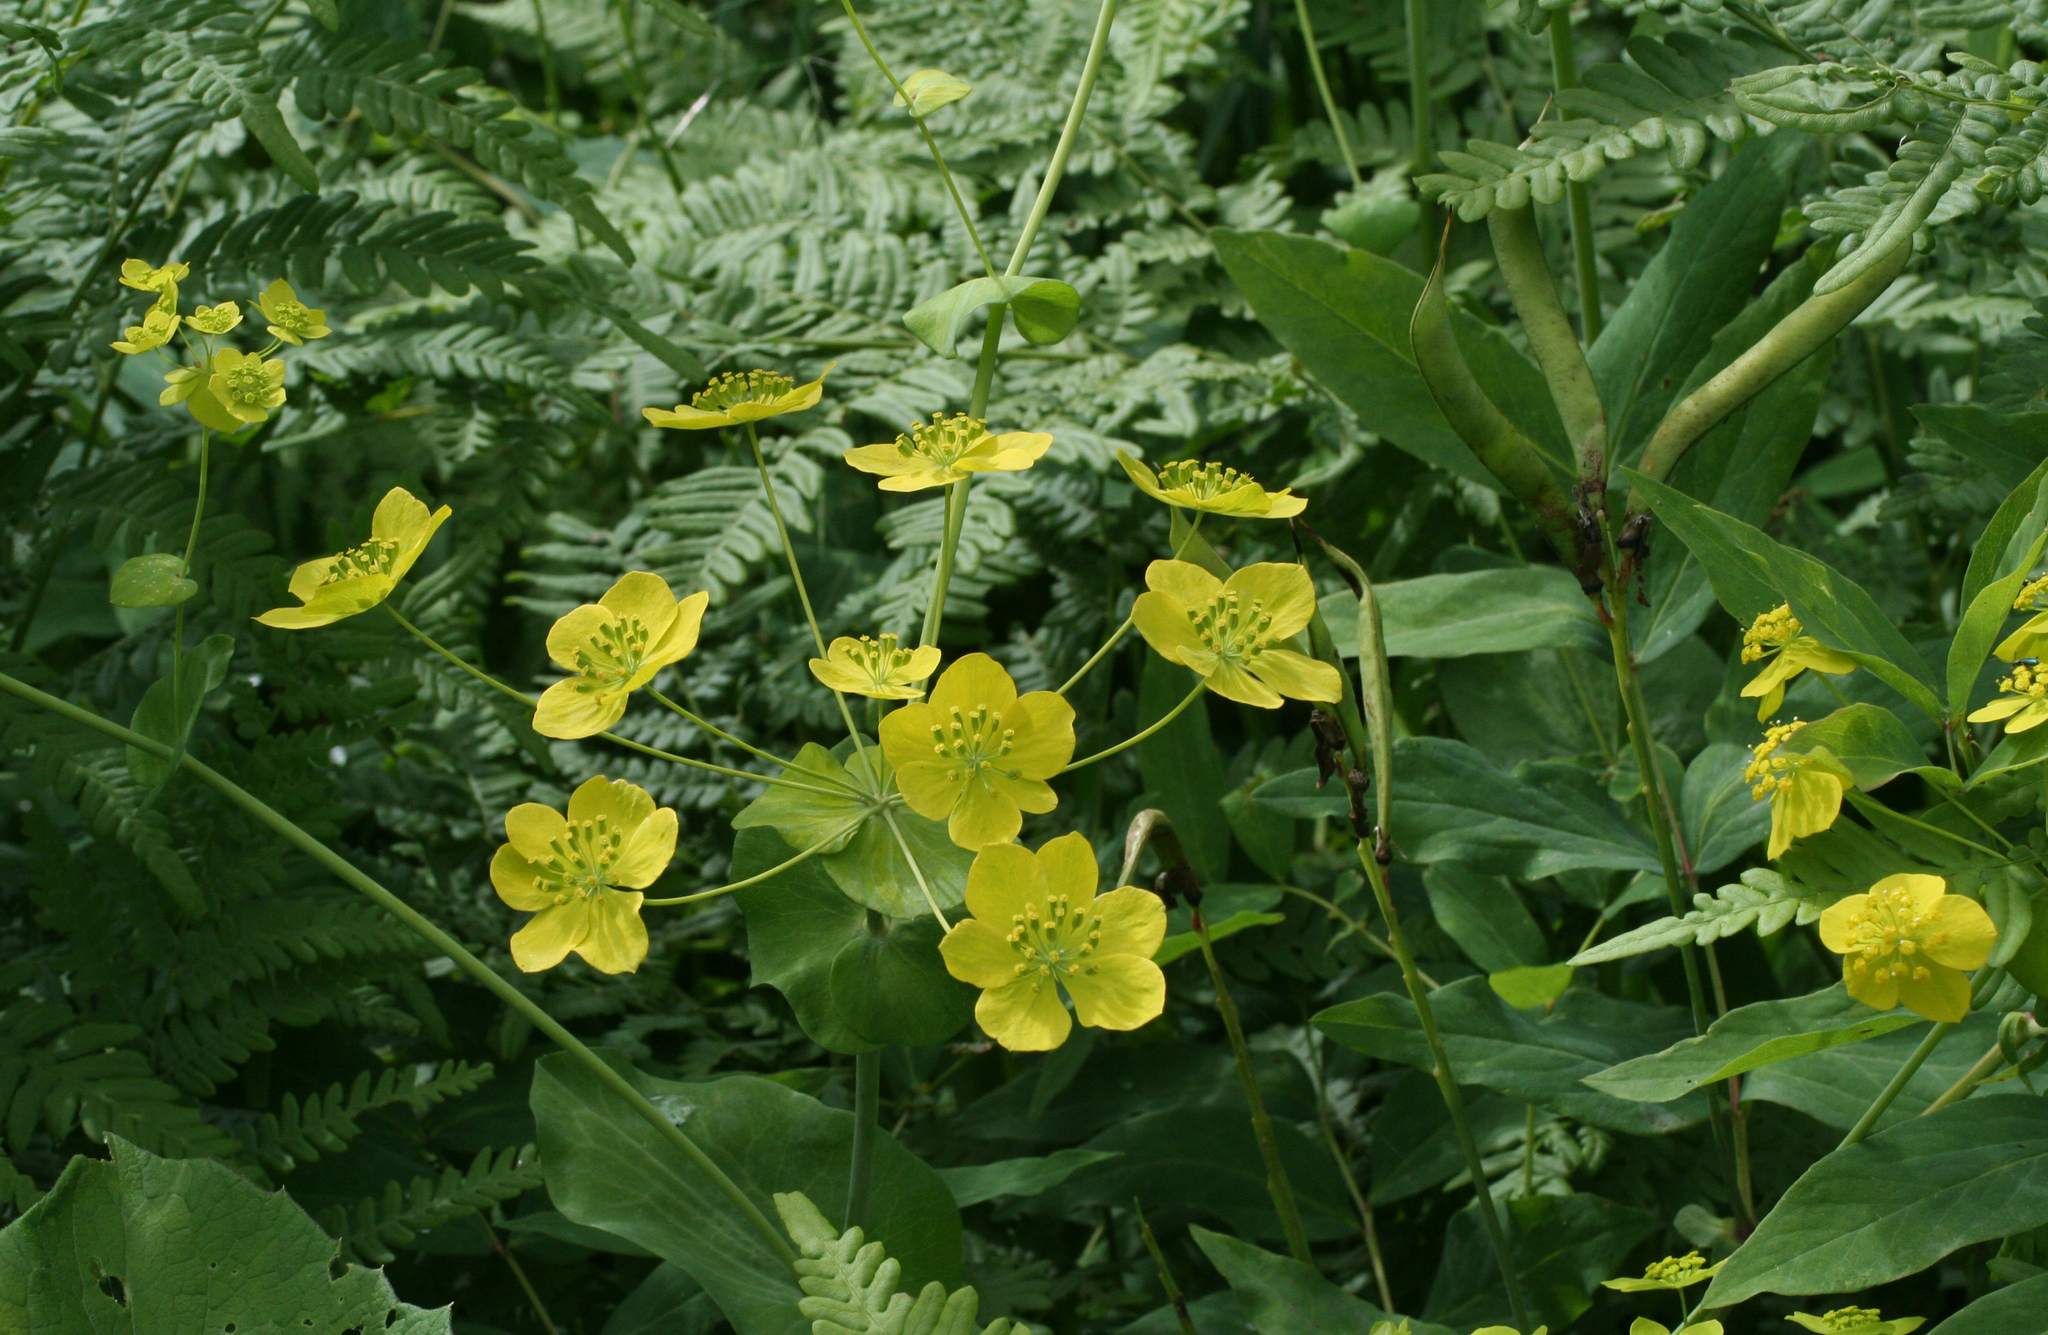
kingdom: Plantae
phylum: Tracheophyta
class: Magnoliopsida
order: Apiales
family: Apiaceae
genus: Bupleurum
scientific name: Bupleurum aureum
